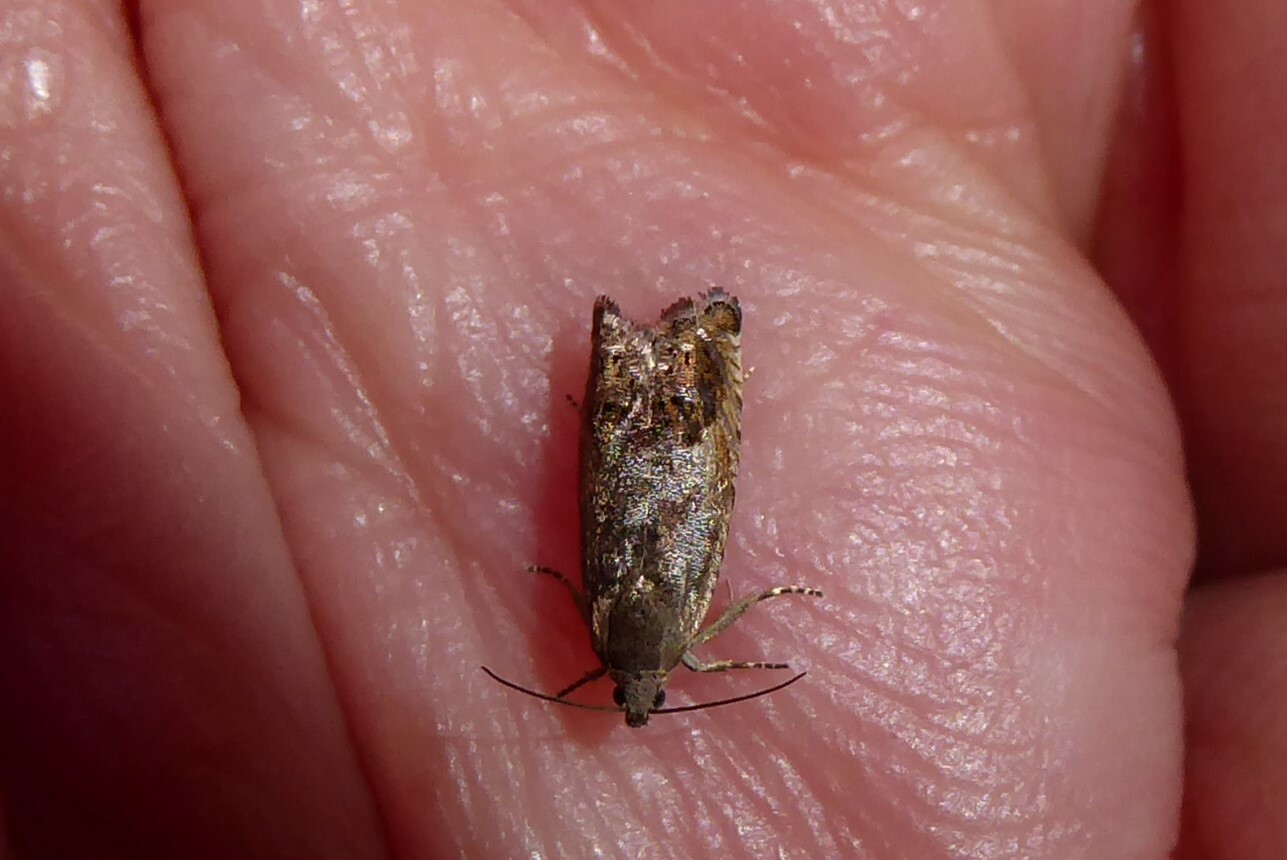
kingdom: Animalia
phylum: Arthropoda
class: Insecta
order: Lepidoptera
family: Tortricidae
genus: Cydia
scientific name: Cydia succedana
